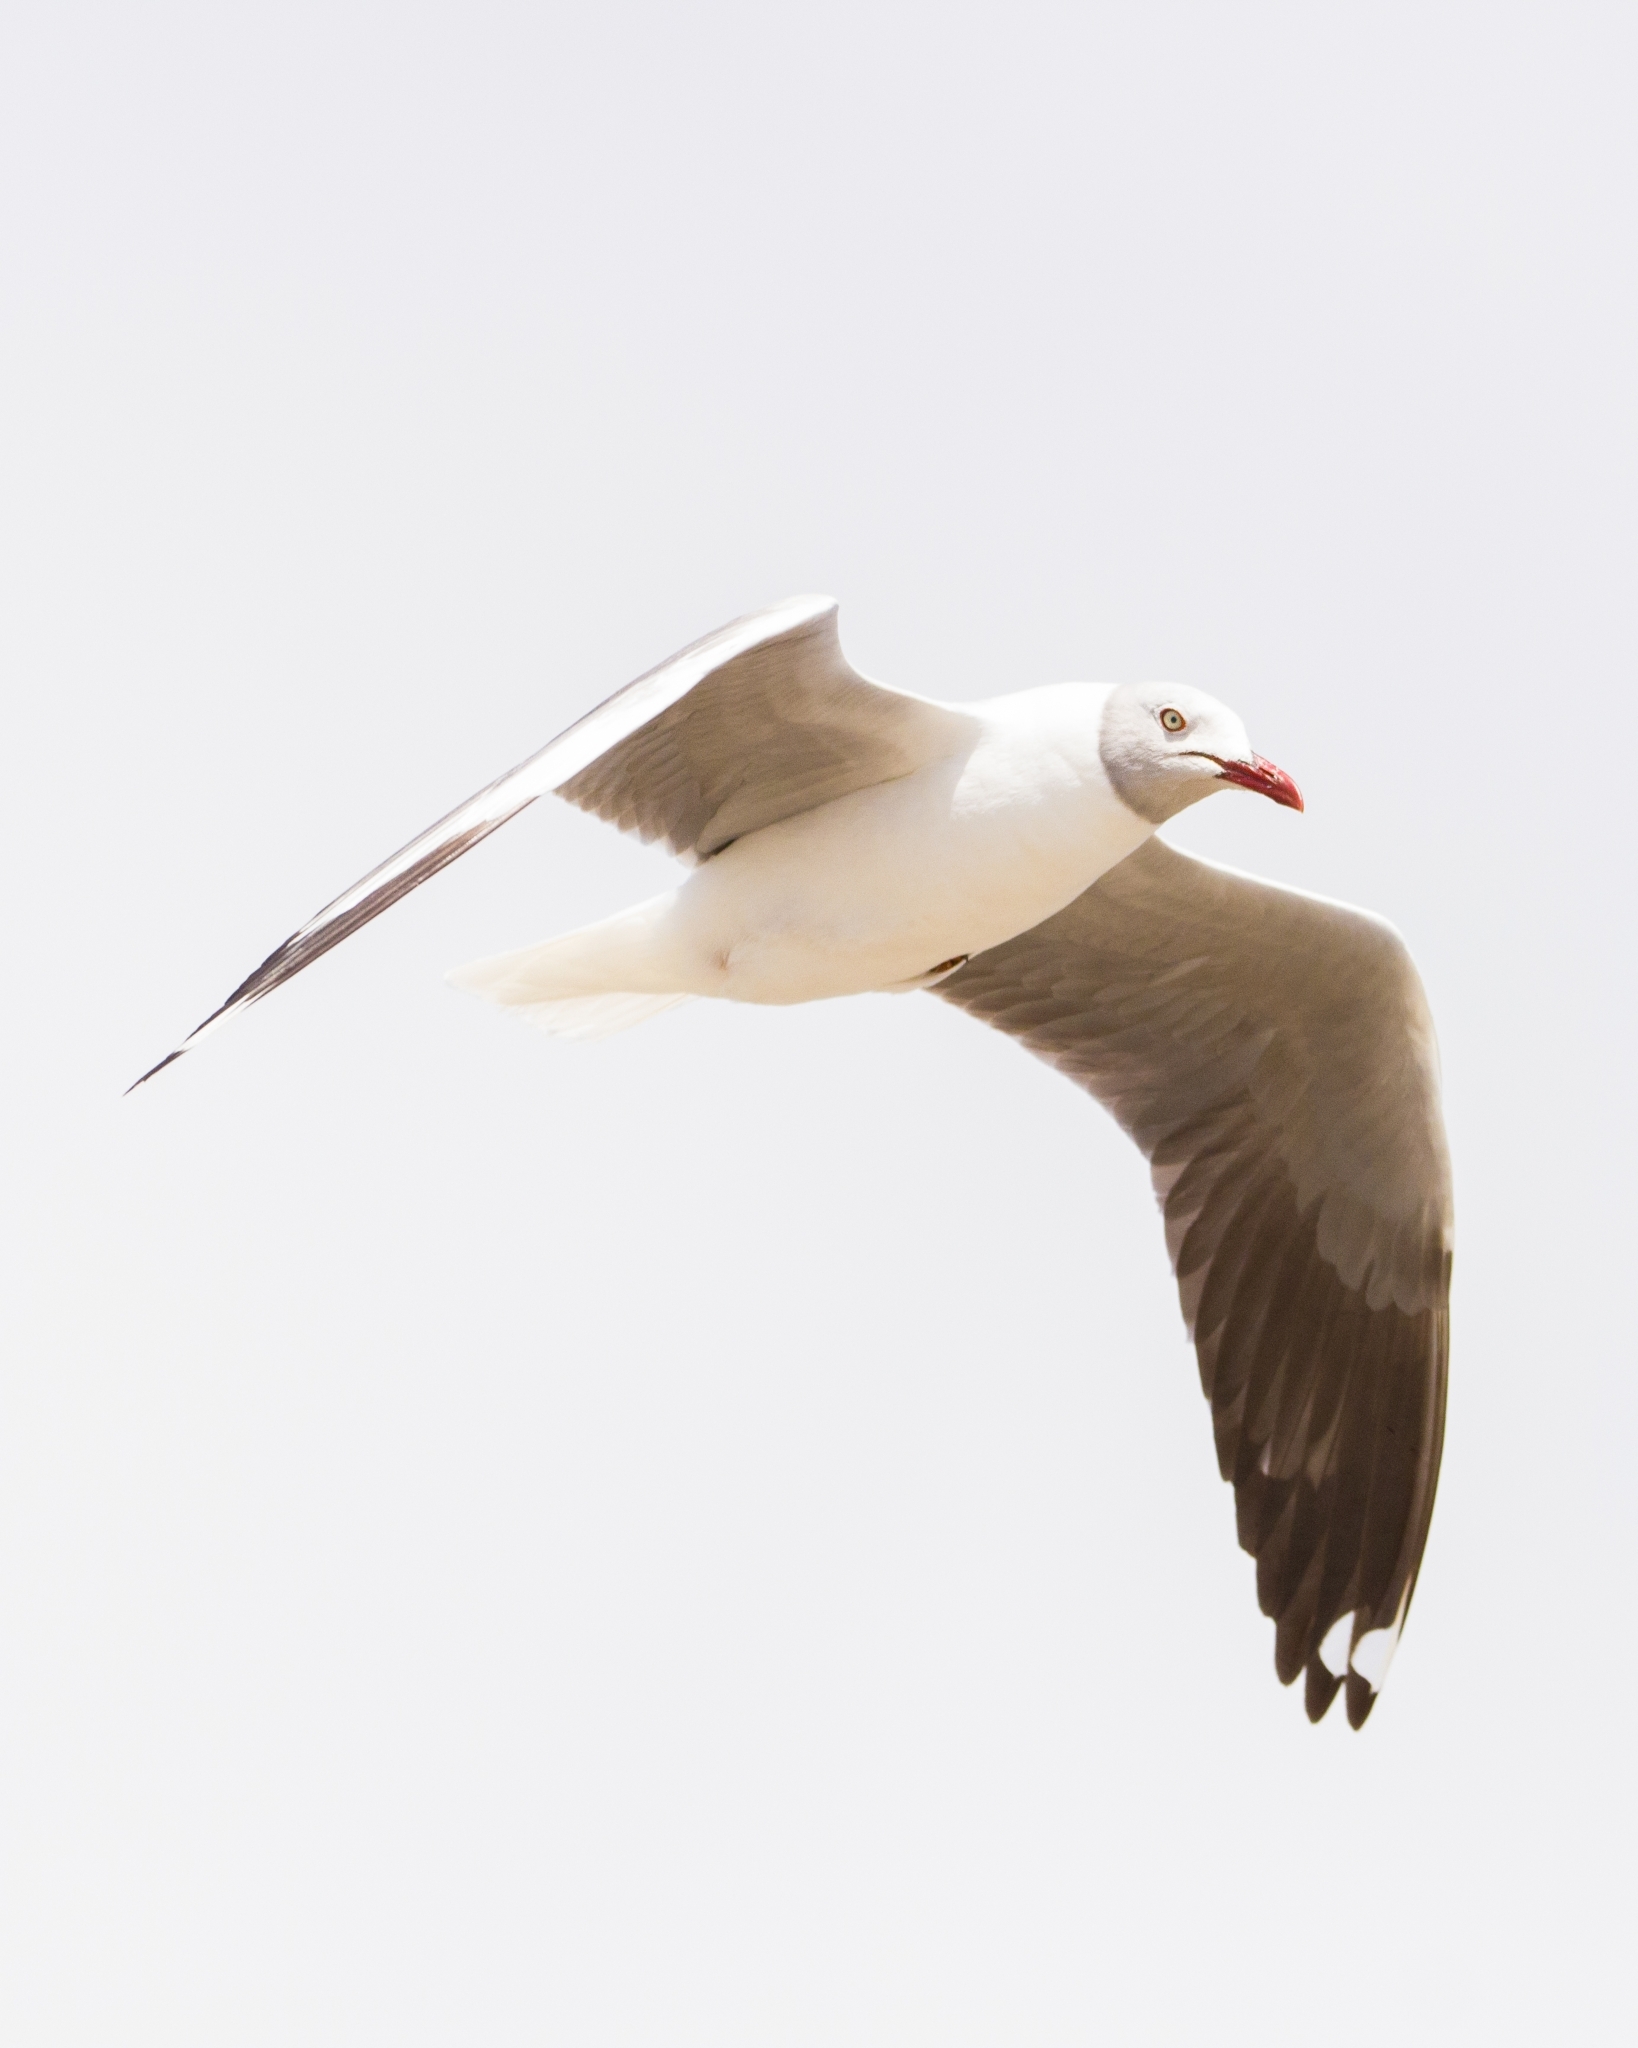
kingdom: Animalia
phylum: Chordata
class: Aves
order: Charadriiformes
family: Laridae
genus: Chroicocephalus
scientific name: Chroicocephalus cirrocephalus
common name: Grey-headed gull
